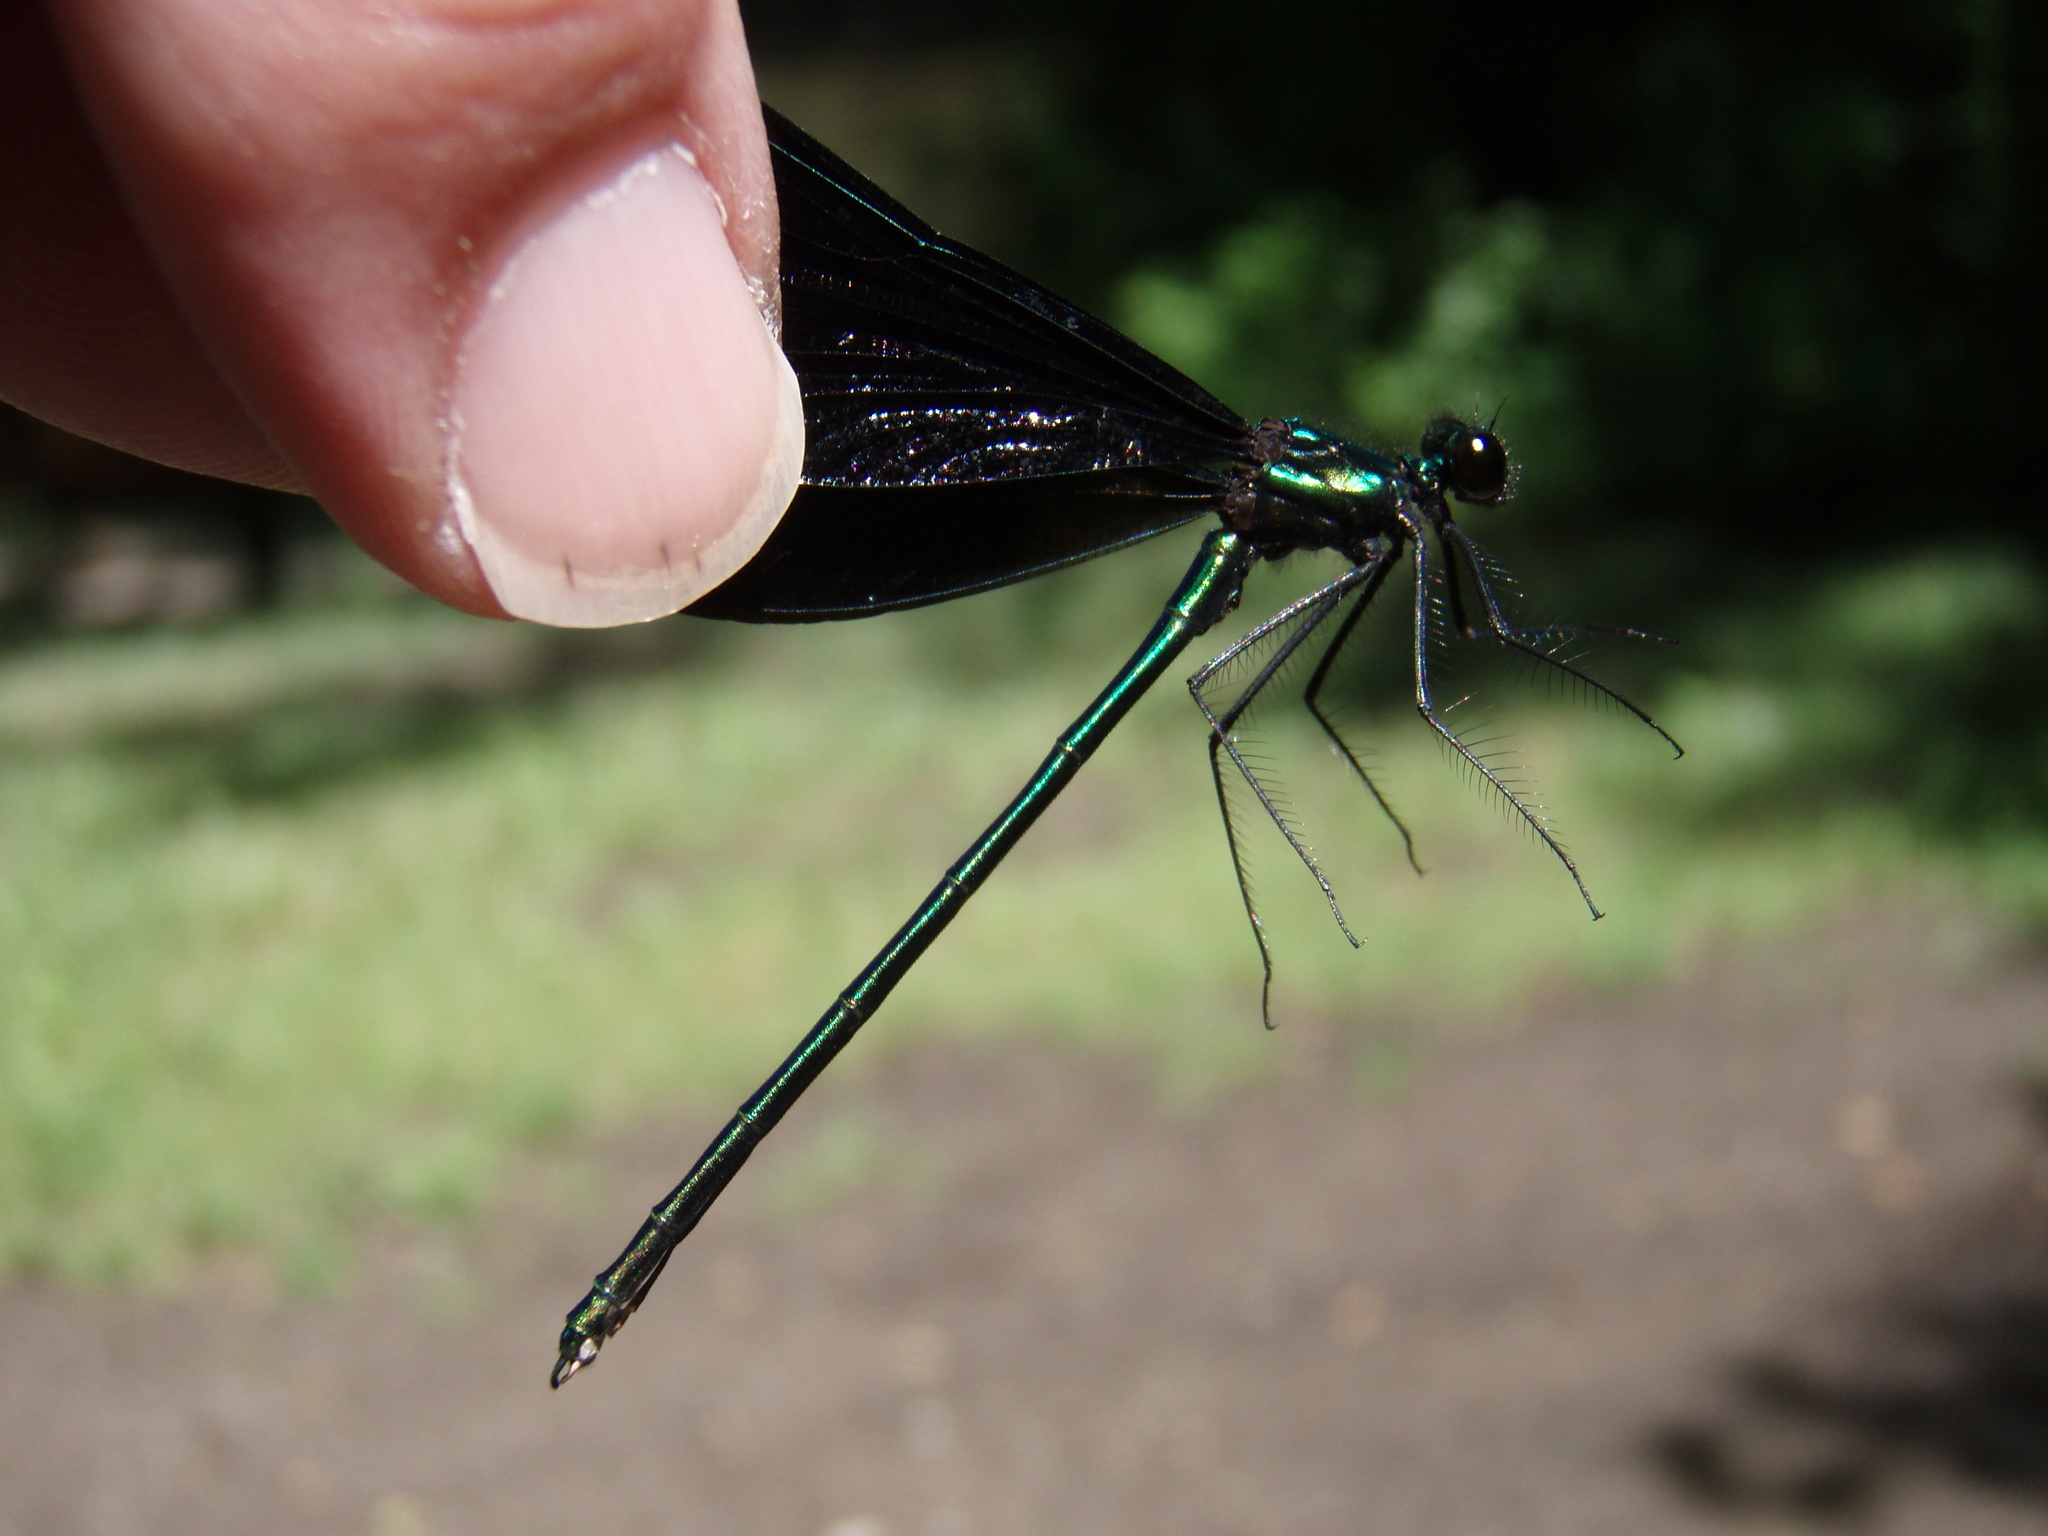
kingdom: Animalia
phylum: Arthropoda
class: Insecta
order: Odonata
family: Calopterygidae
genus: Calopteryx
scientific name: Calopteryx maculata
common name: Ebony jewelwing
